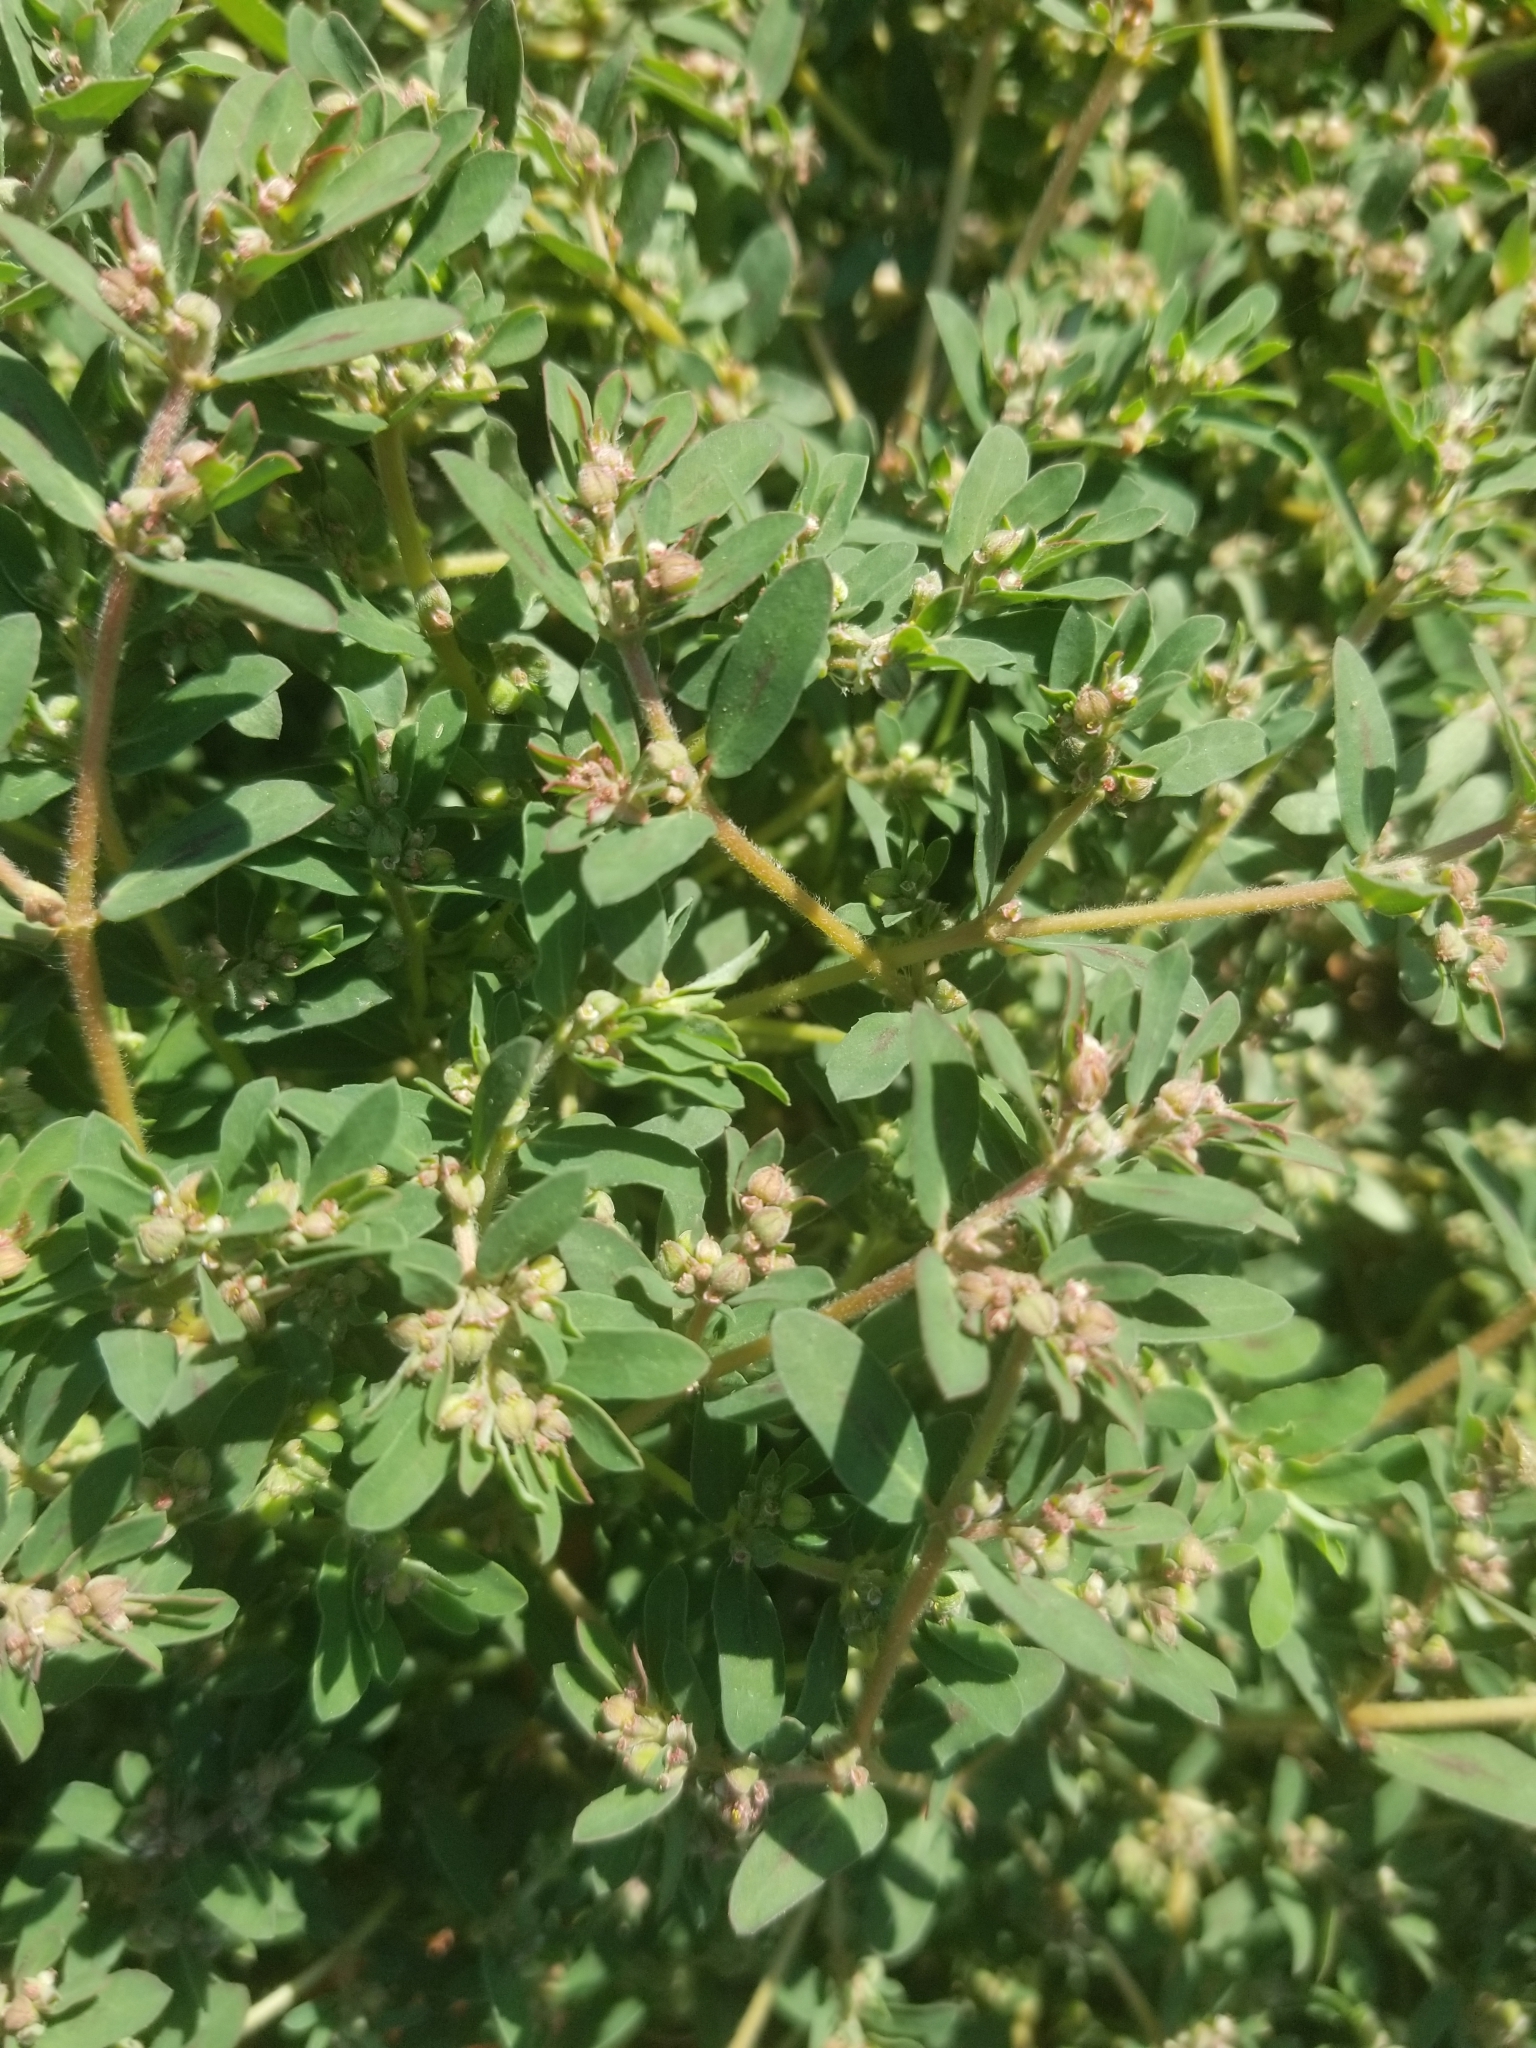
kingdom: Plantae
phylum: Tracheophyta
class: Magnoliopsida
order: Malpighiales
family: Euphorbiaceae
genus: Euphorbia
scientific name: Euphorbia maculata
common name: Spotted spurge
